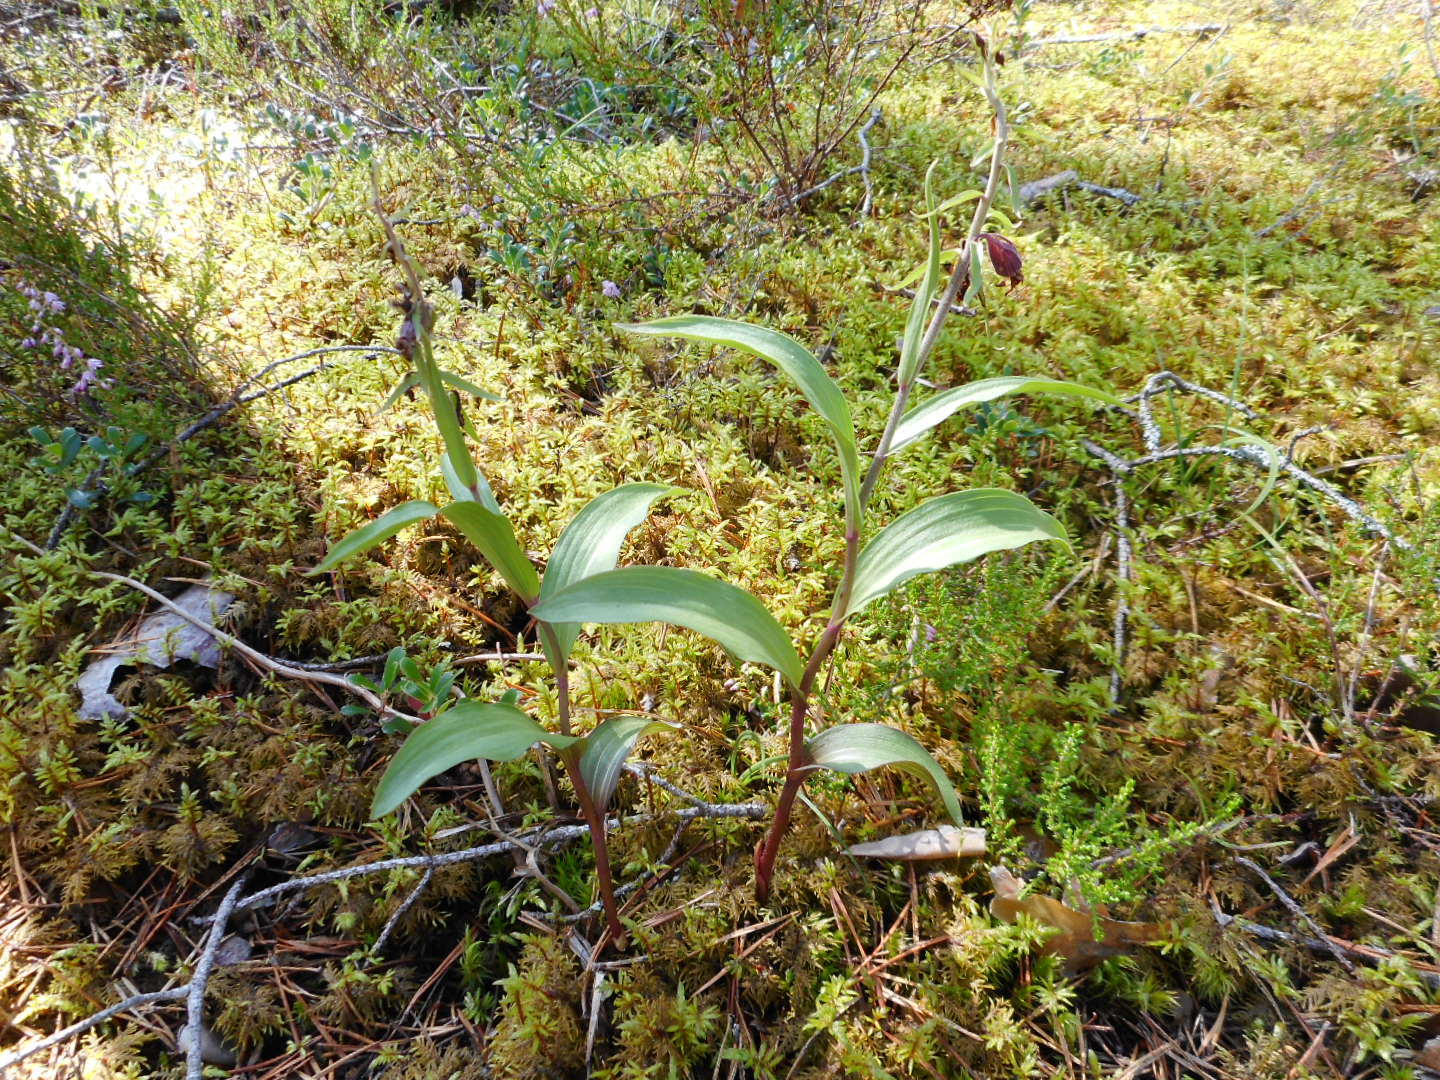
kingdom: Plantae
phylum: Tracheophyta
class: Liliopsida
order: Asparagales
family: Orchidaceae
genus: Epipactis
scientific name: Epipactis atrorubens
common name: Dark-red helleborine
